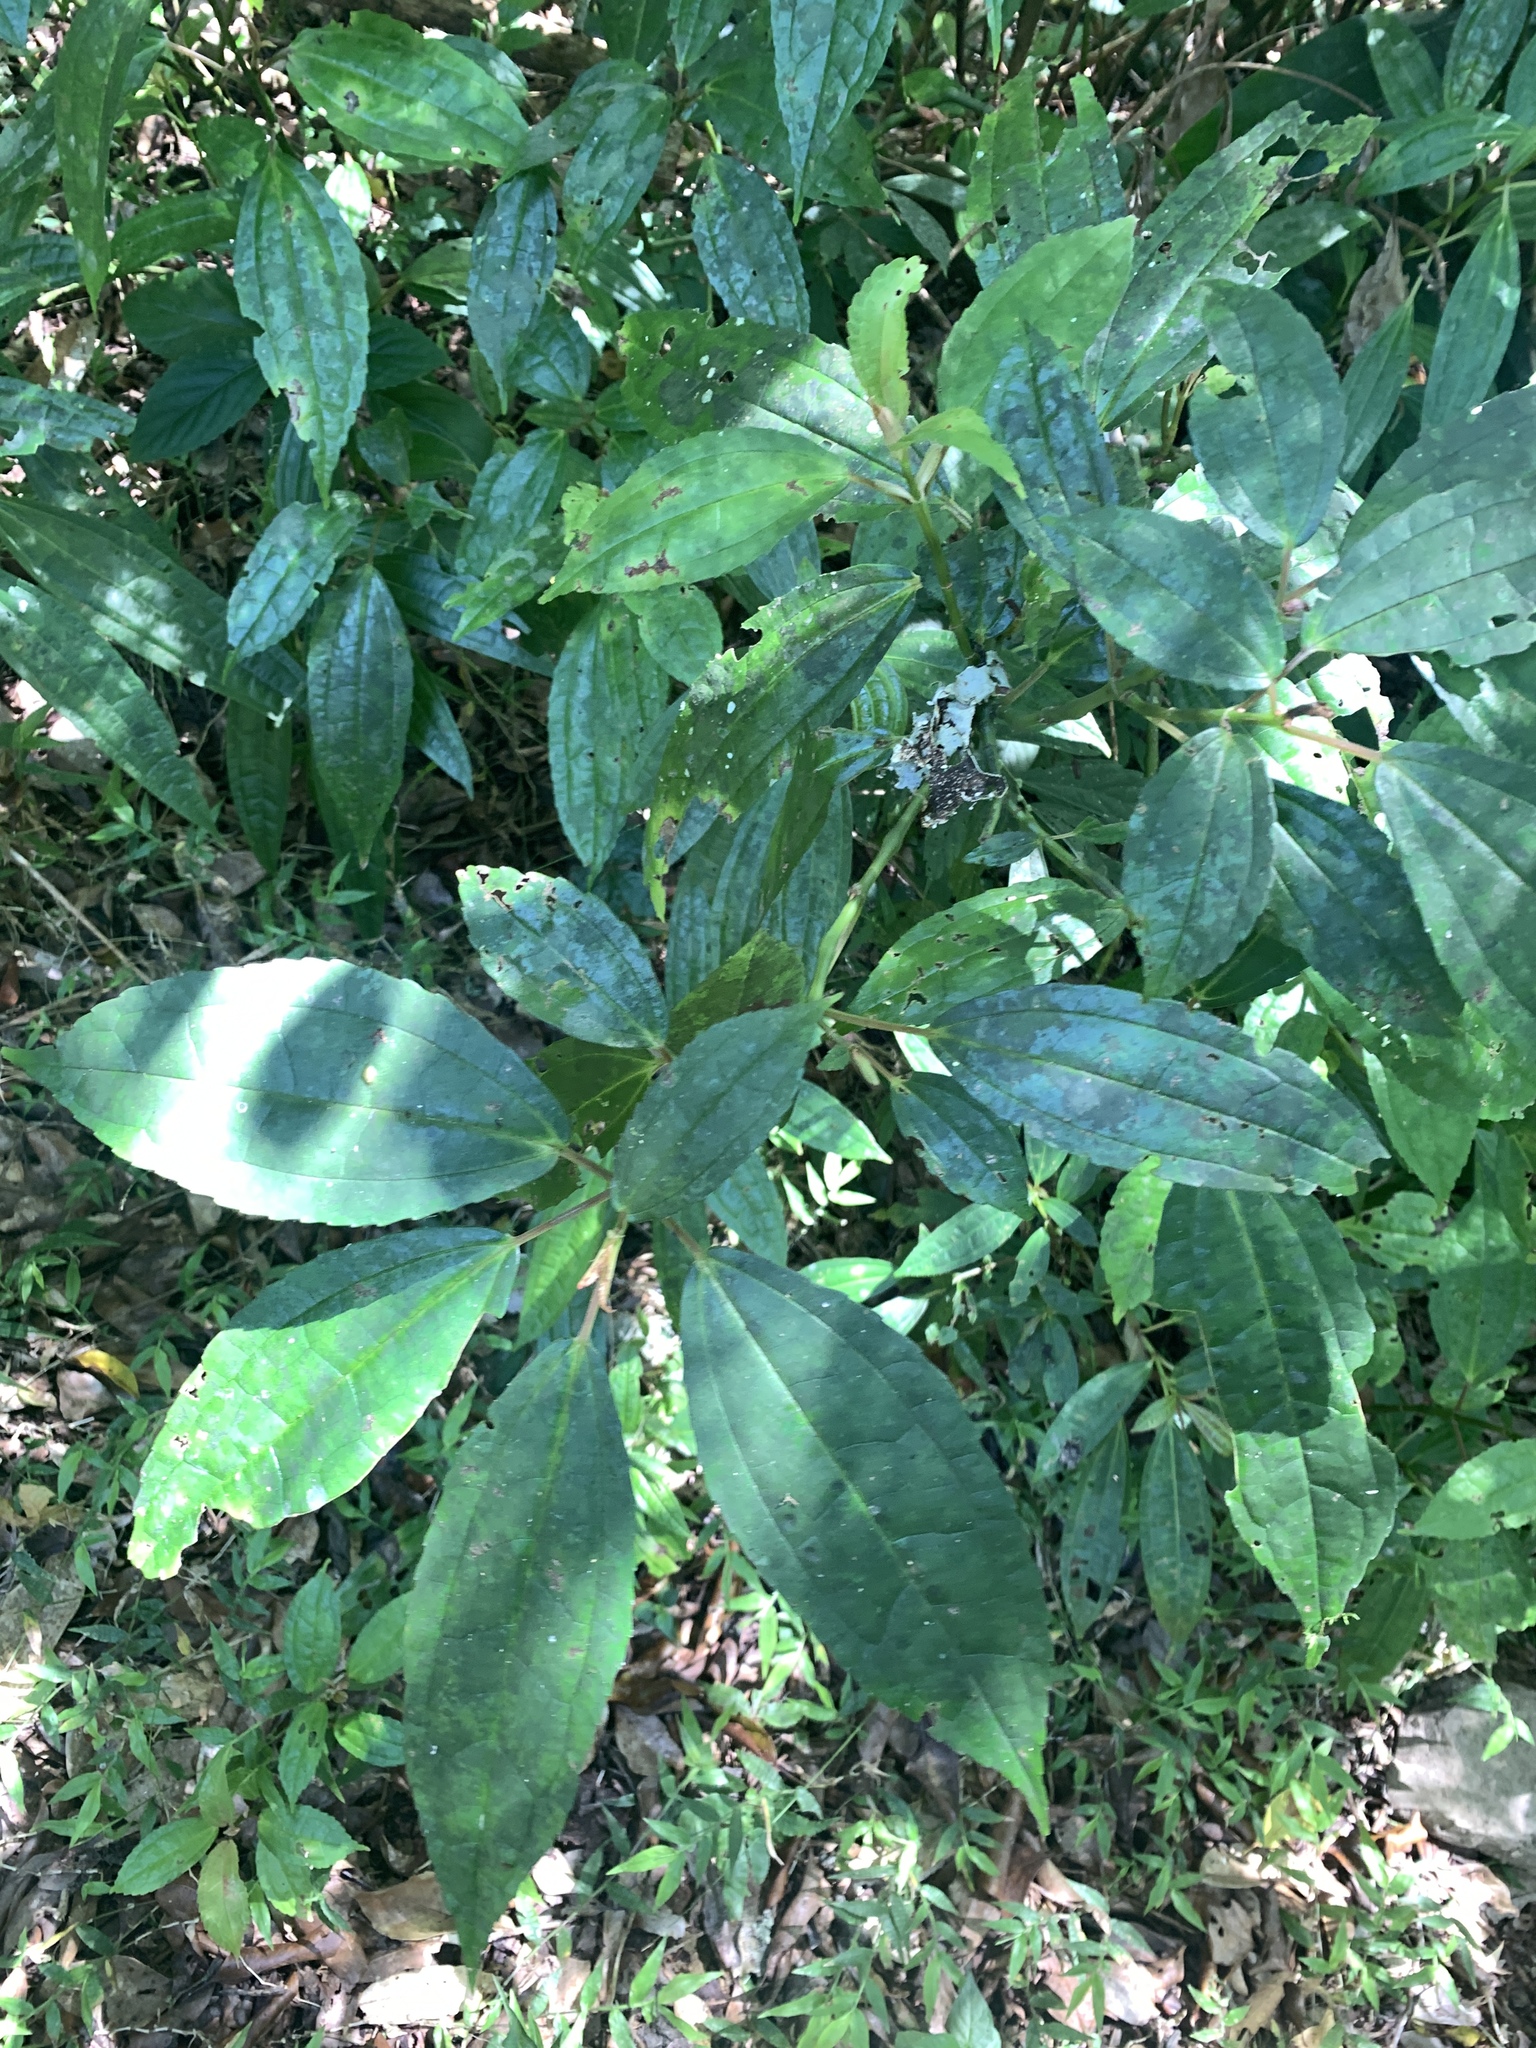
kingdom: Plantae
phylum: Tracheophyta
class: Magnoliopsida
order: Rosales
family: Urticaceae
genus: Pilea
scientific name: Pilea funkikensis
